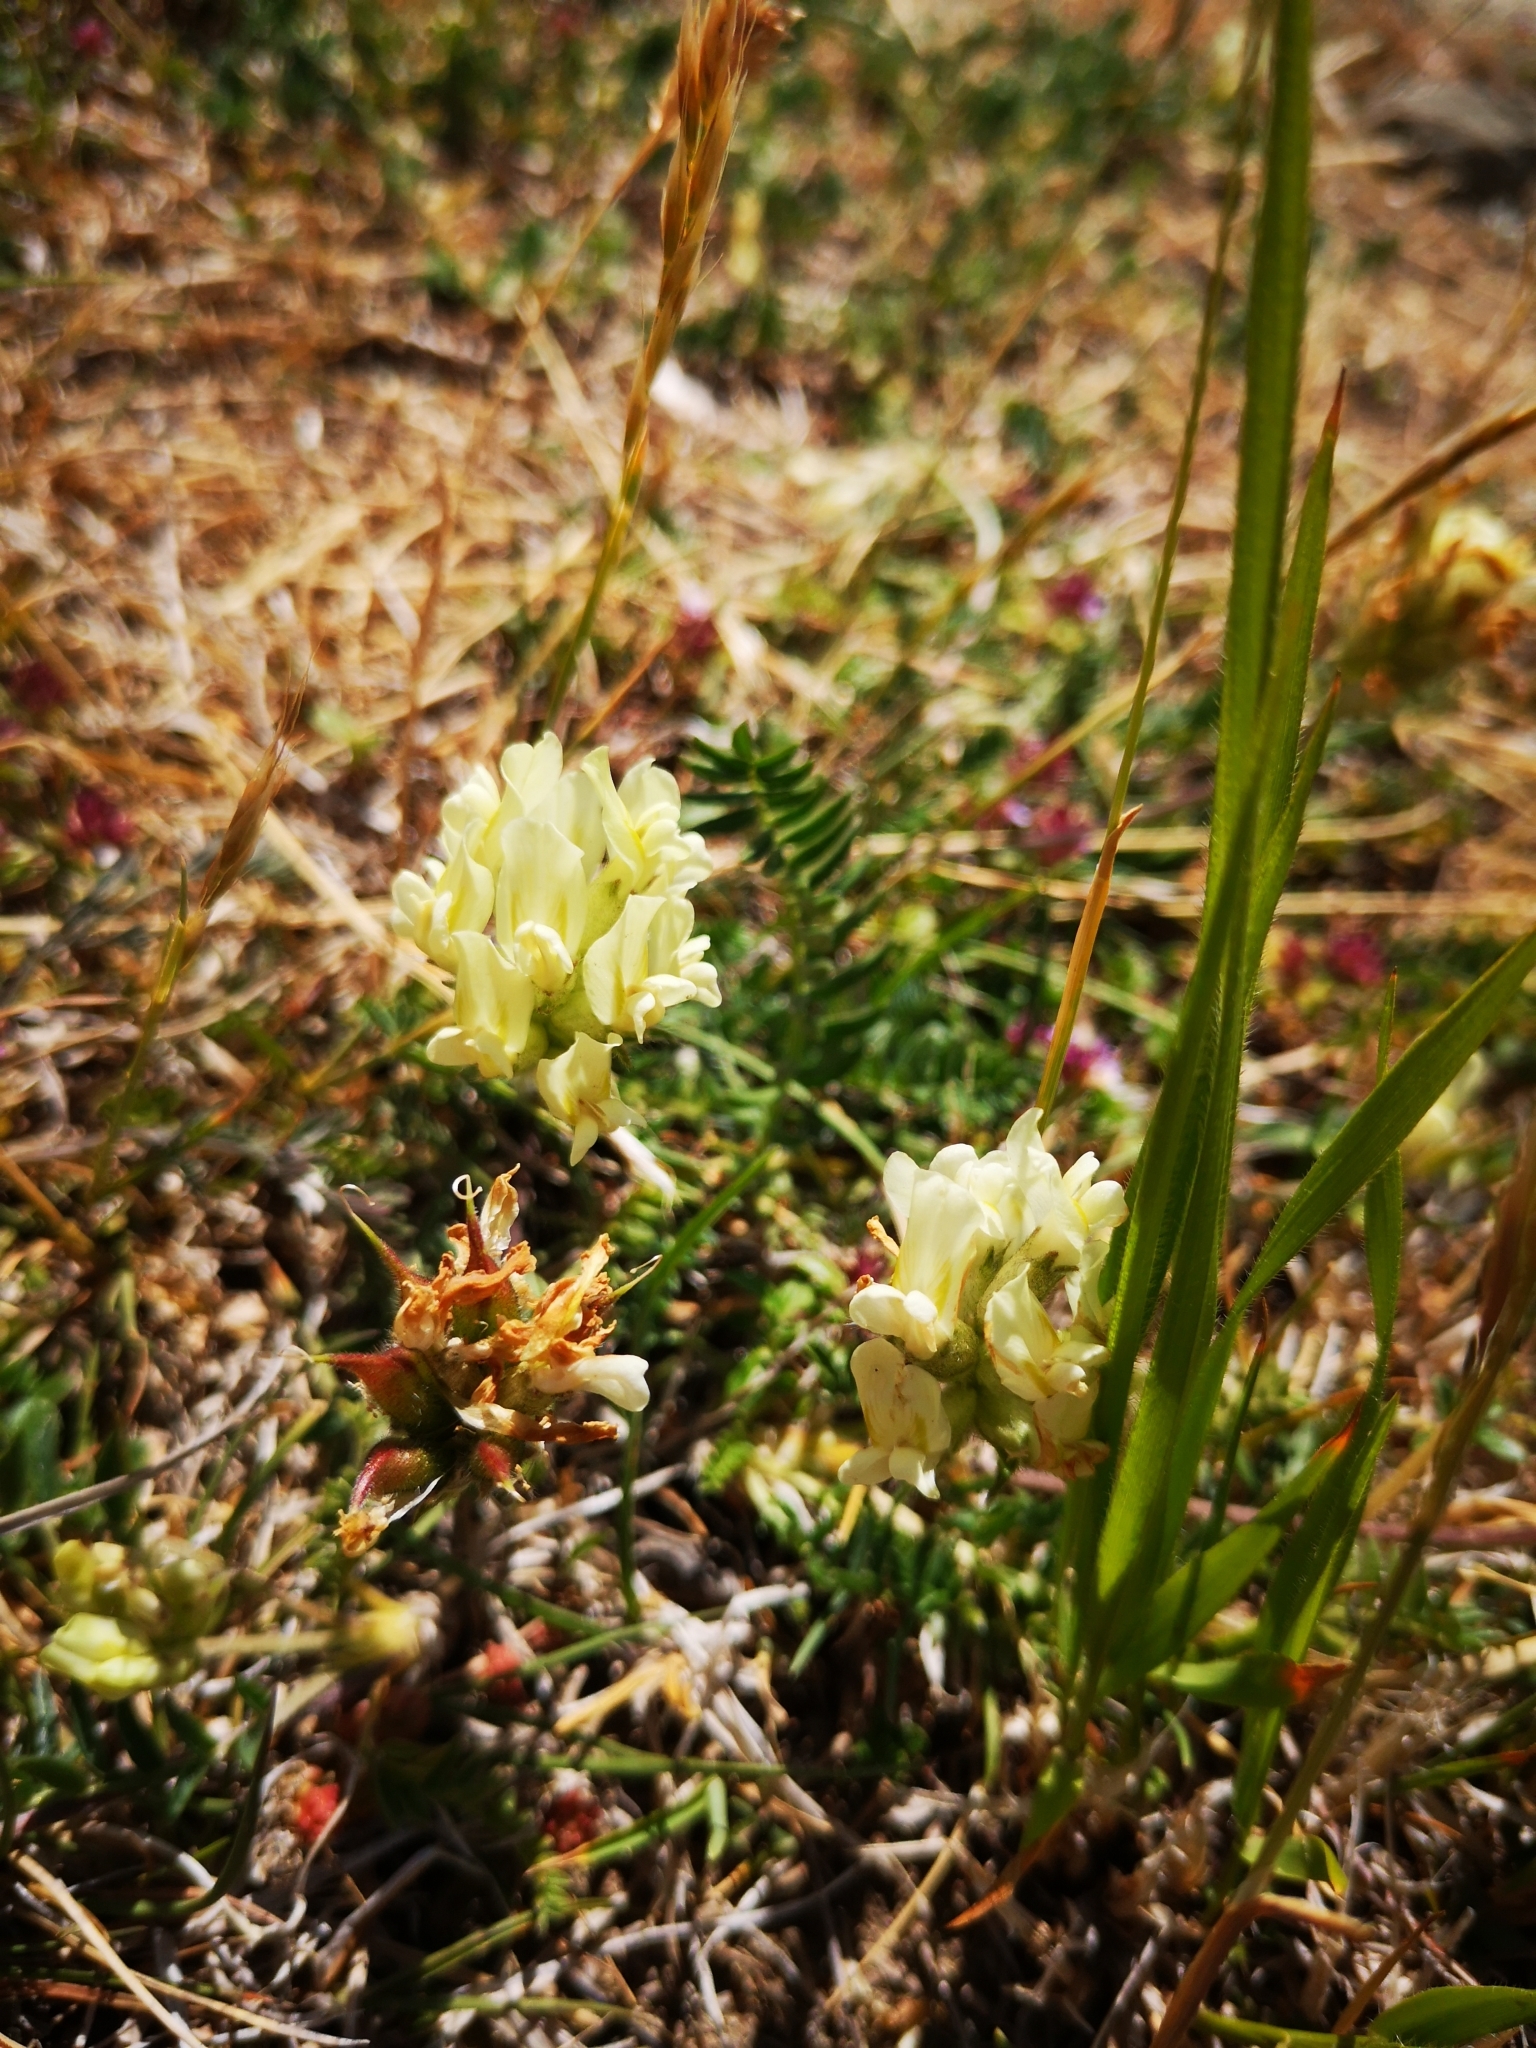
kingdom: Plantae
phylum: Tracheophyta
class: Magnoliopsida
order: Fabales
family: Fabaceae
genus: Oxytropis
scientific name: Oxytropis campestris
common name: Field locoweed
